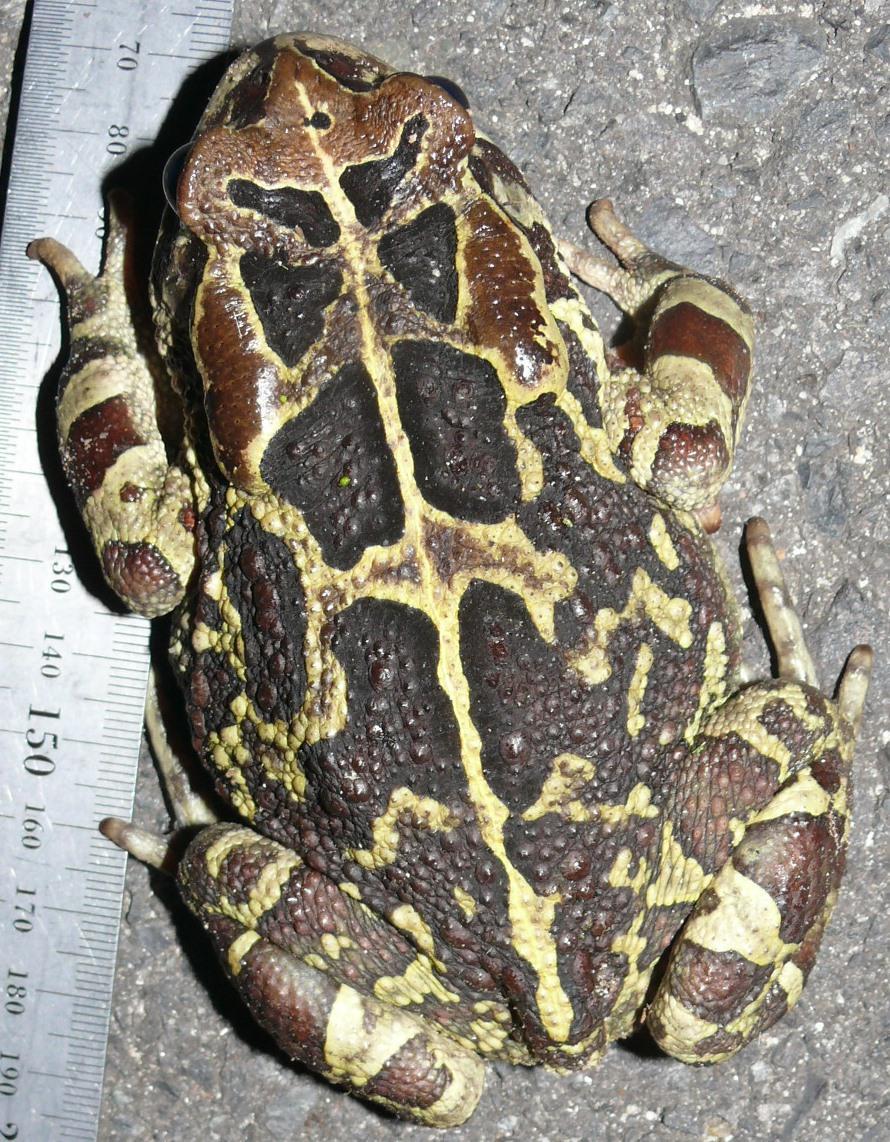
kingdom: Animalia
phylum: Chordata
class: Amphibia
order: Anura
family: Bufonidae
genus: Sclerophrys
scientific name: Sclerophrys pantherina
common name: Panther toad
